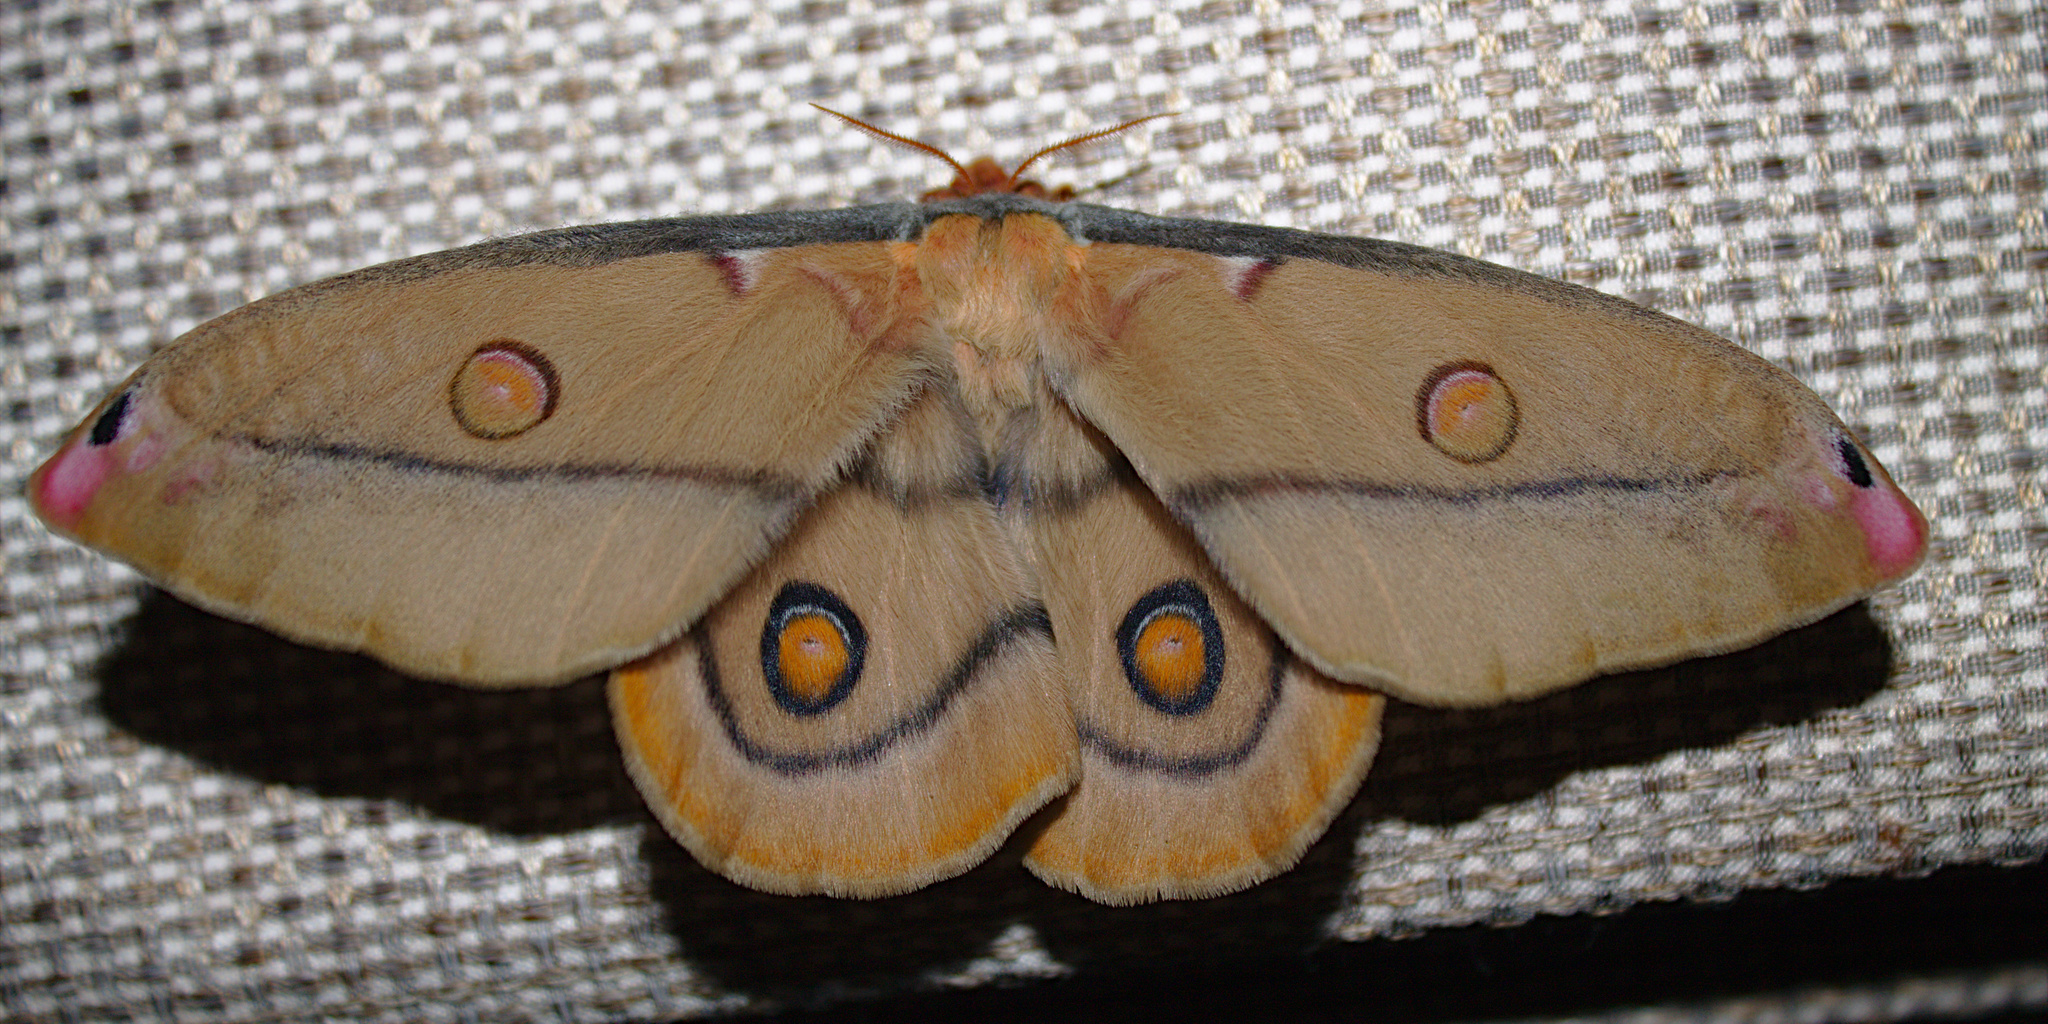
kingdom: Animalia
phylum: Arthropoda
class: Insecta
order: Lepidoptera
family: Saturniidae
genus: Opodiphthera
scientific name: Opodiphthera
